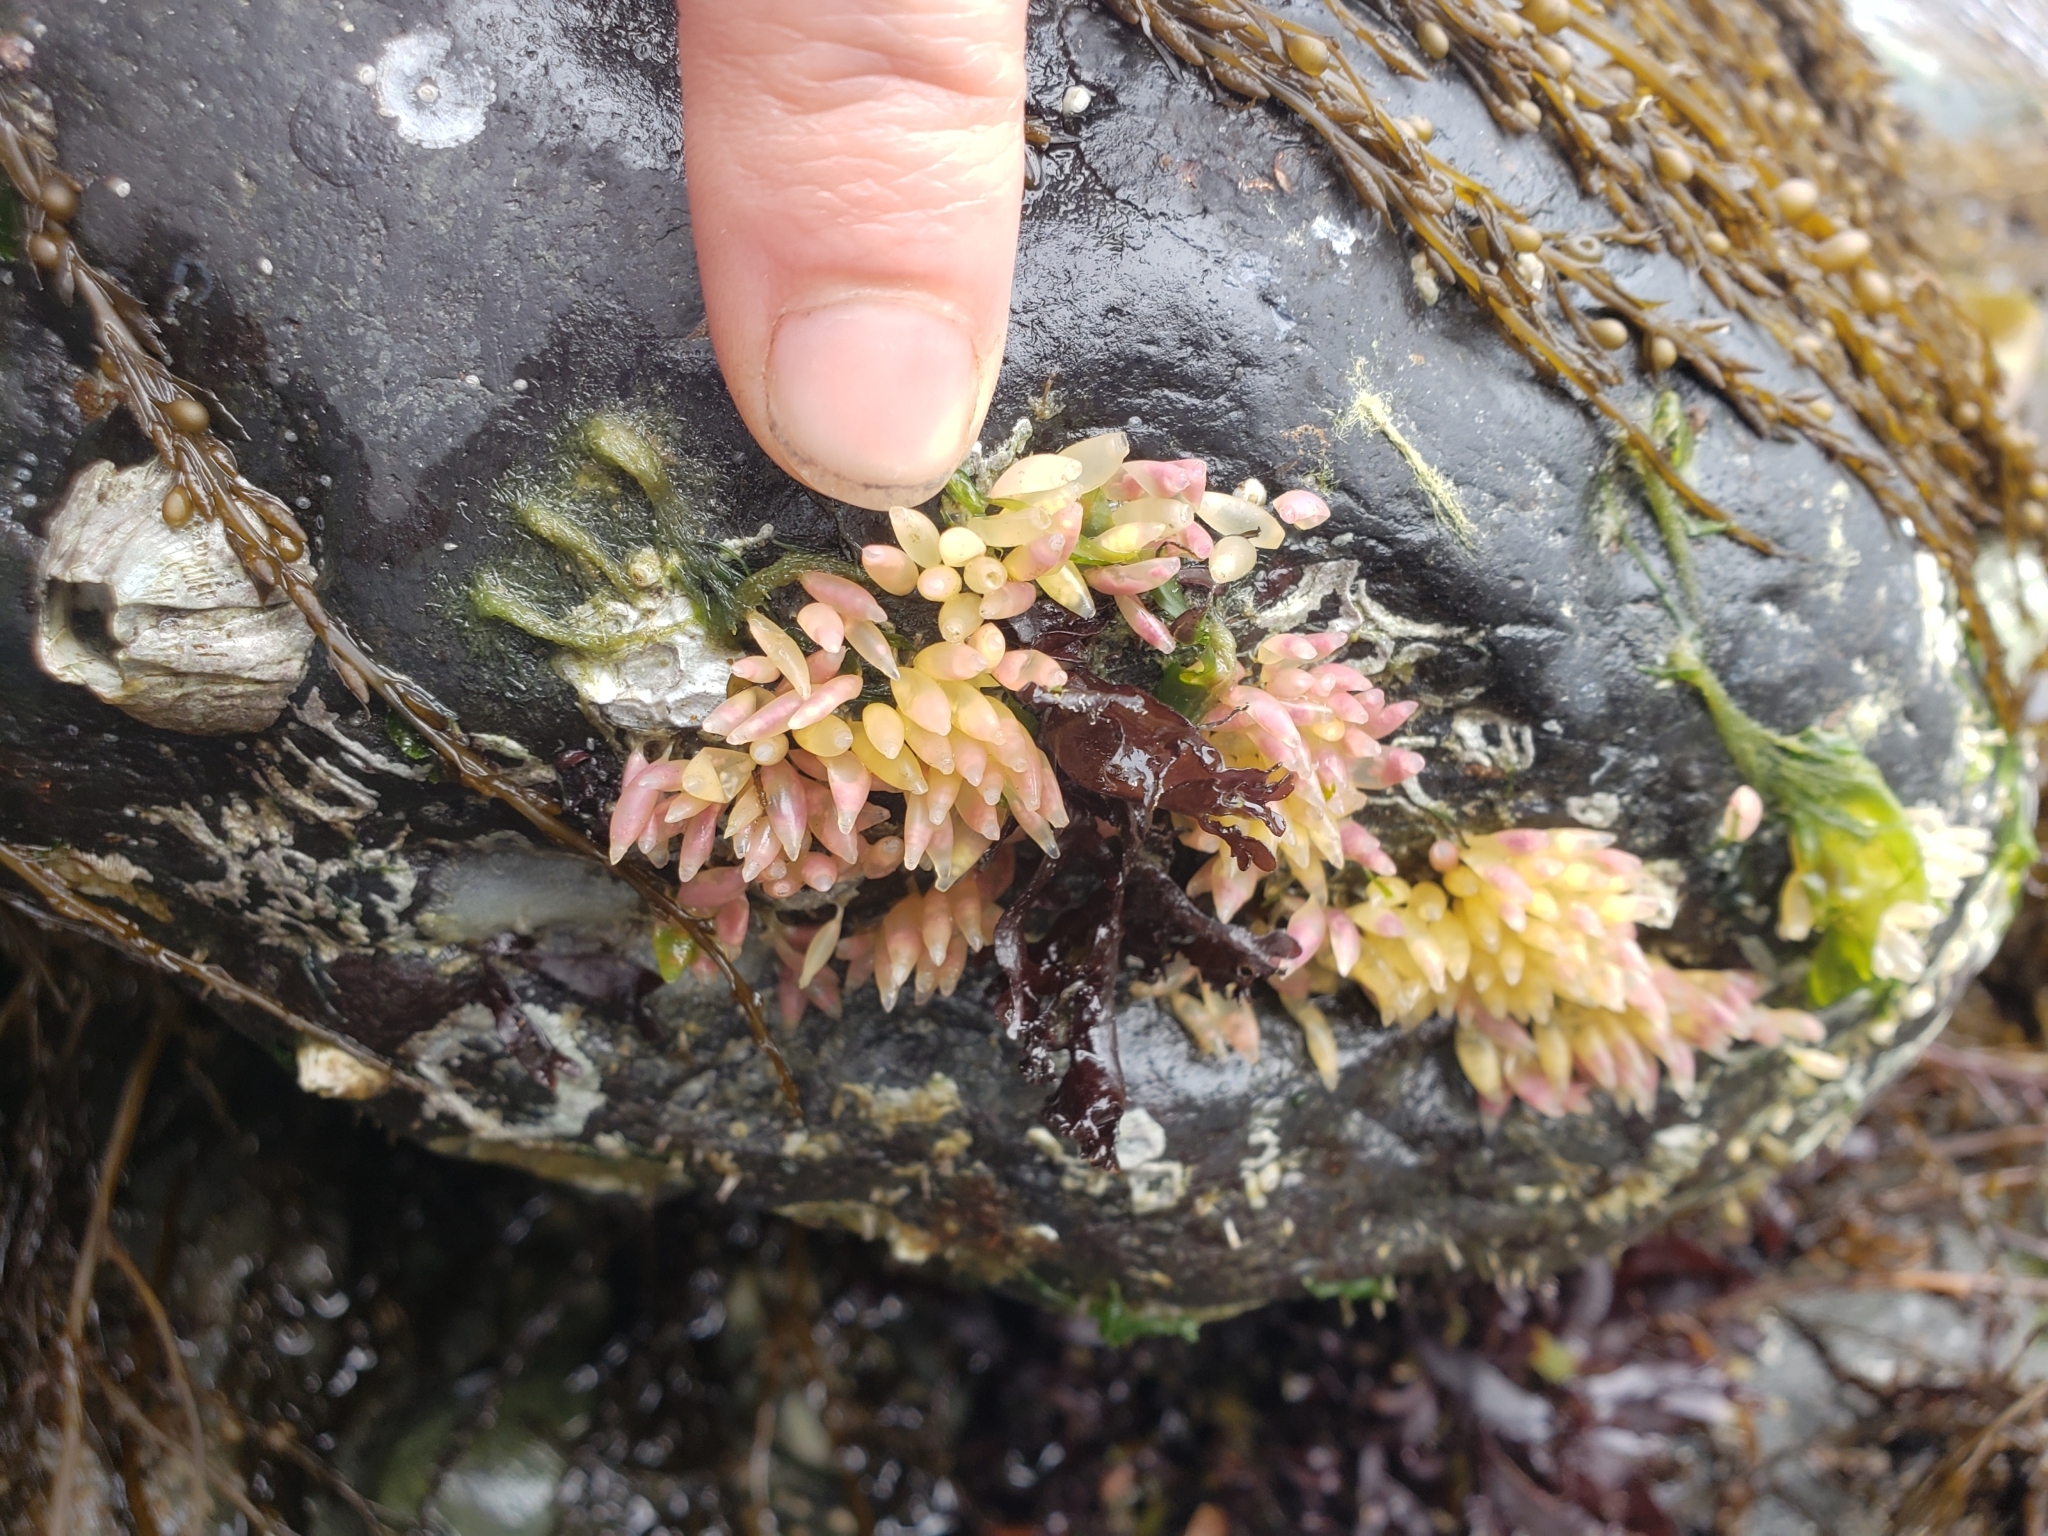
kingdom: Animalia
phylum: Mollusca
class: Gastropoda
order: Neogastropoda
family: Muricidae
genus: Nucella
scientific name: Nucella lamellosa
